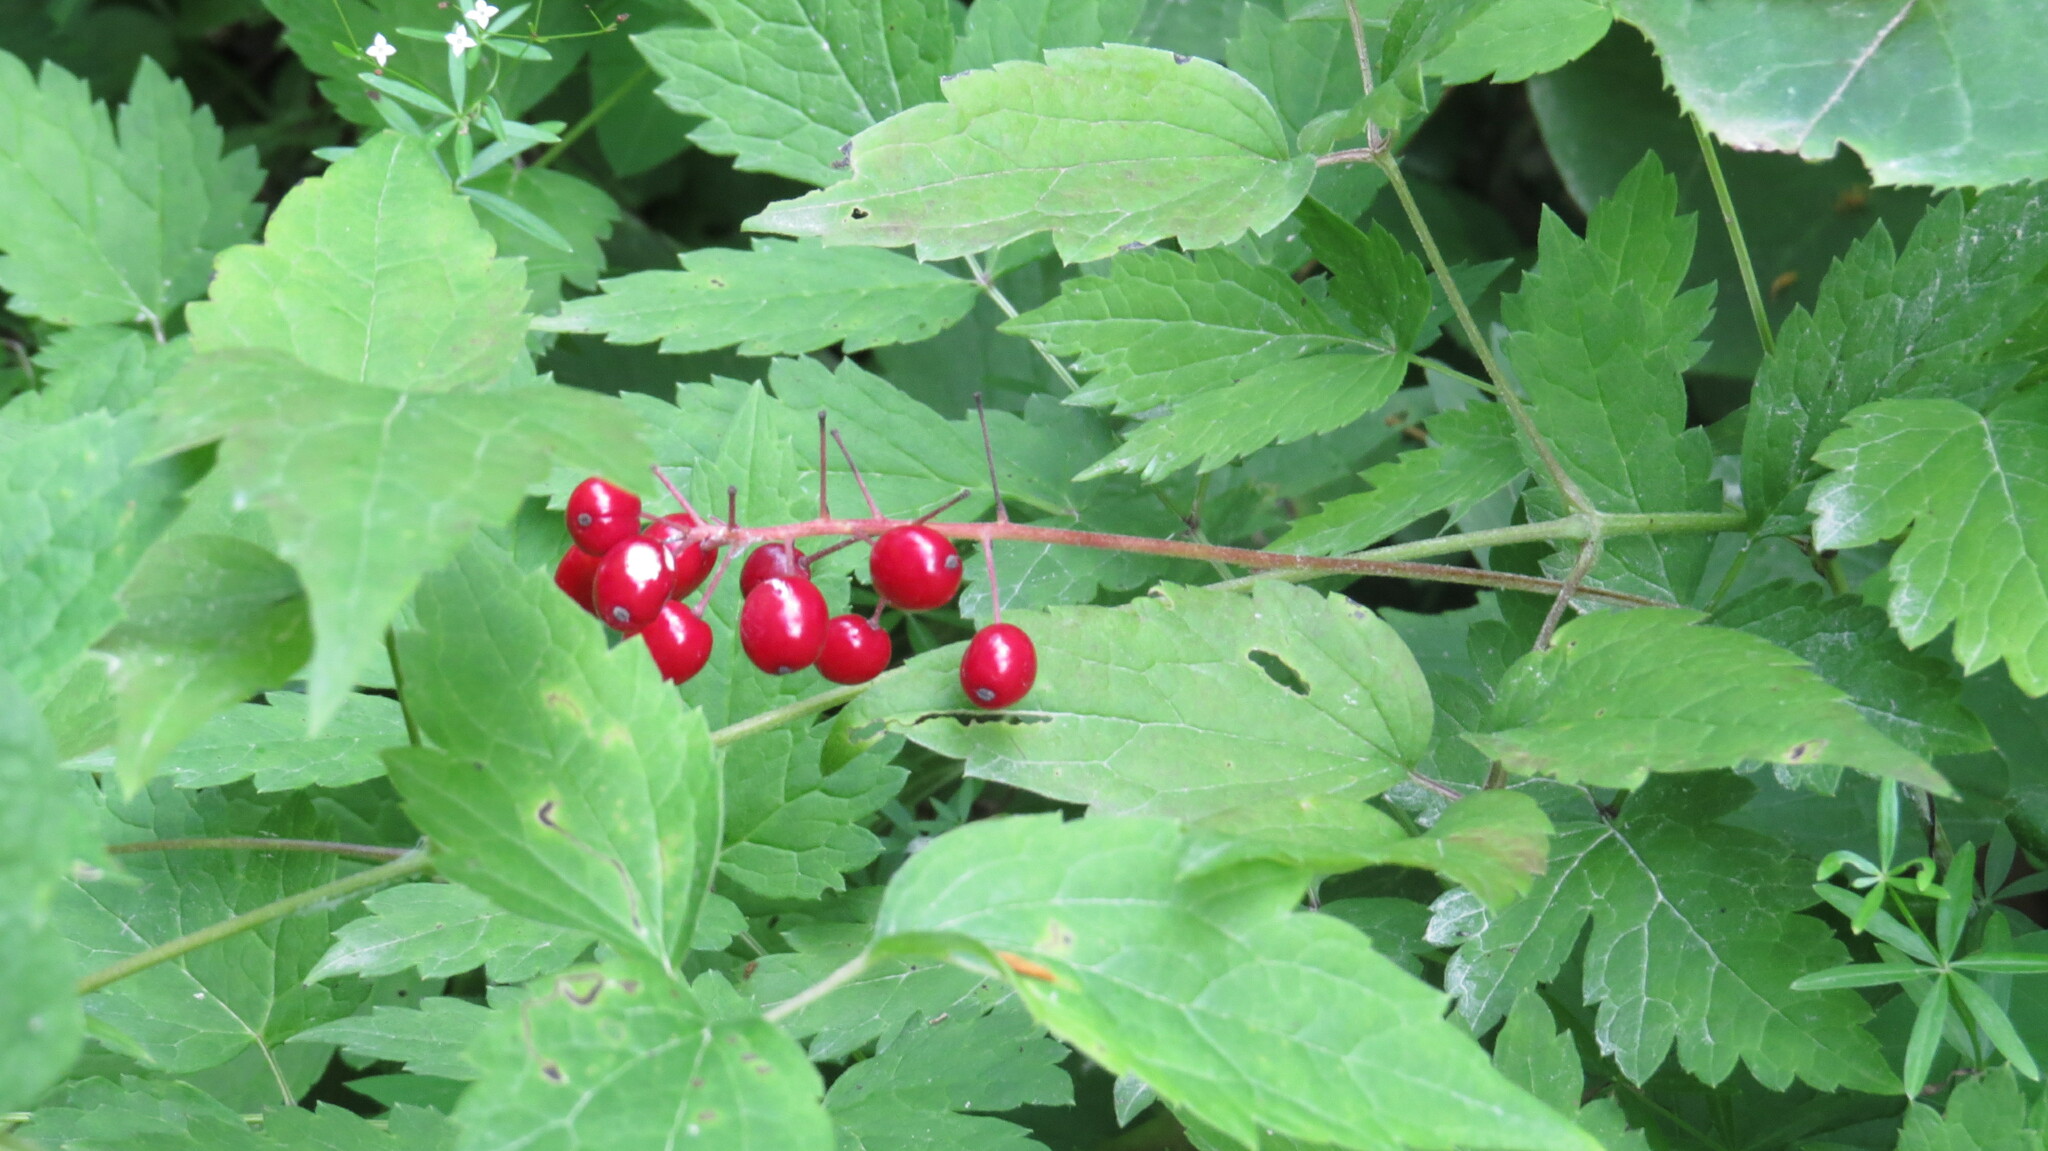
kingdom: Plantae
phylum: Tracheophyta
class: Magnoliopsida
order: Ranunculales
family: Ranunculaceae
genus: Actaea
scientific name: Actaea rubra
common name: Red baneberry
